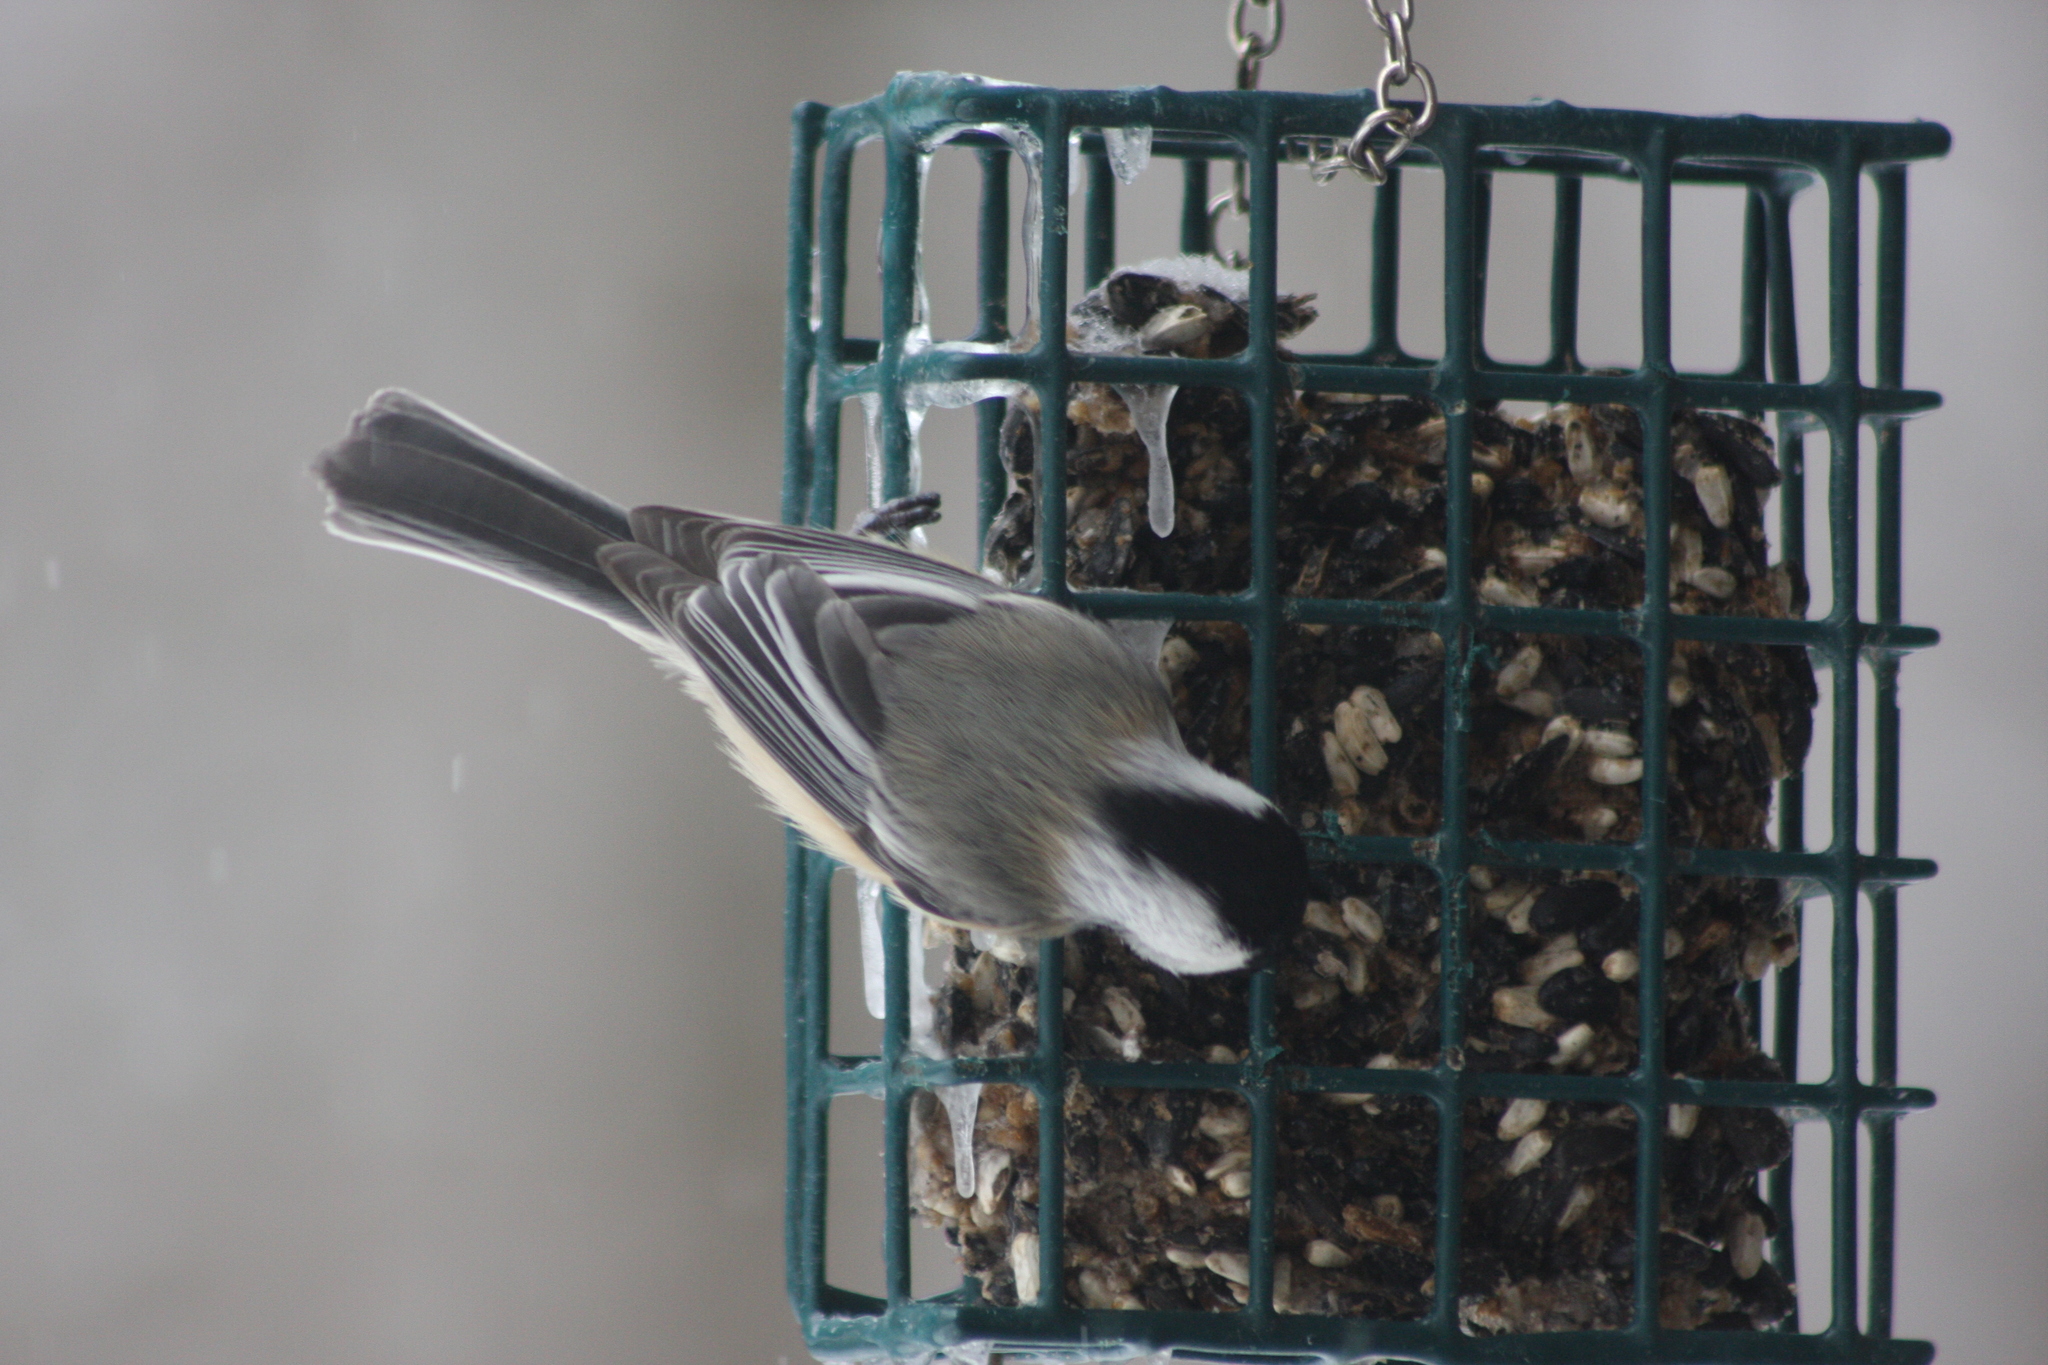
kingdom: Animalia
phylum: Chordata
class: Aves
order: Passeriformes
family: Paridae
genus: Poecile
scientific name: Poecile atricapillus
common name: Black-capped chickadee
